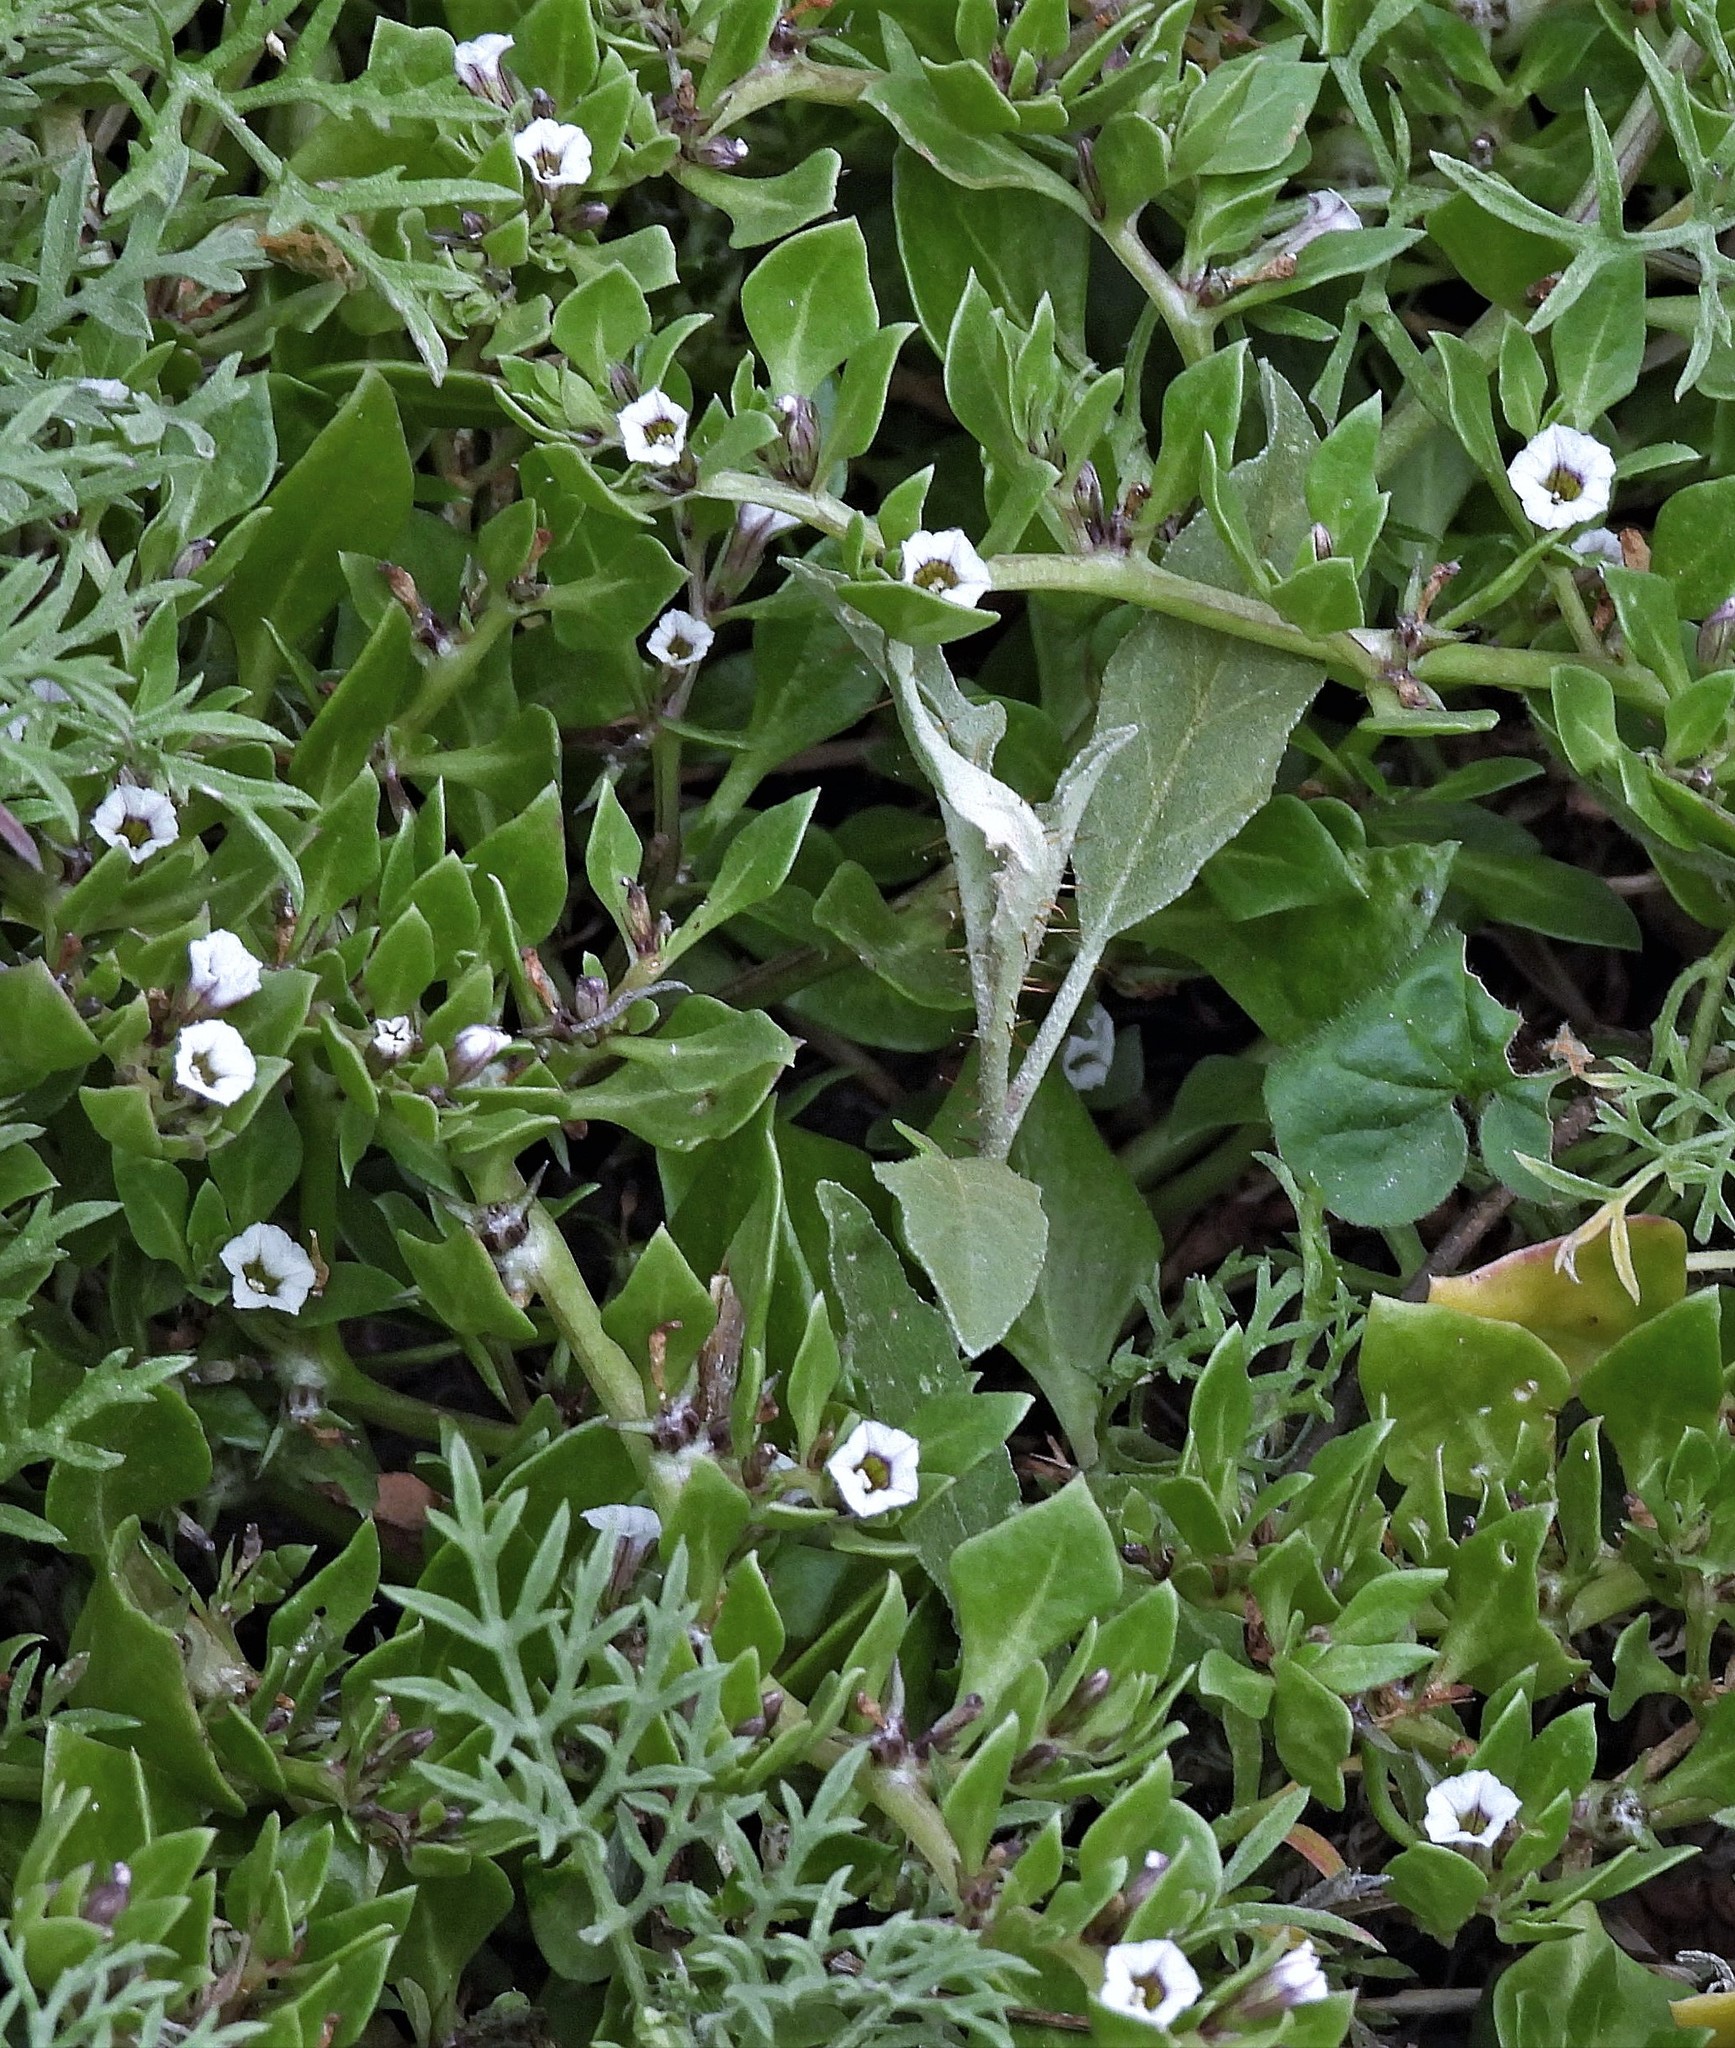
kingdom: Plantae
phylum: Tracheophyta
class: Magnoliopsida
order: Solanales
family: Solanaceae
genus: Sclerophylax
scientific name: Sclerophylax spinescens
